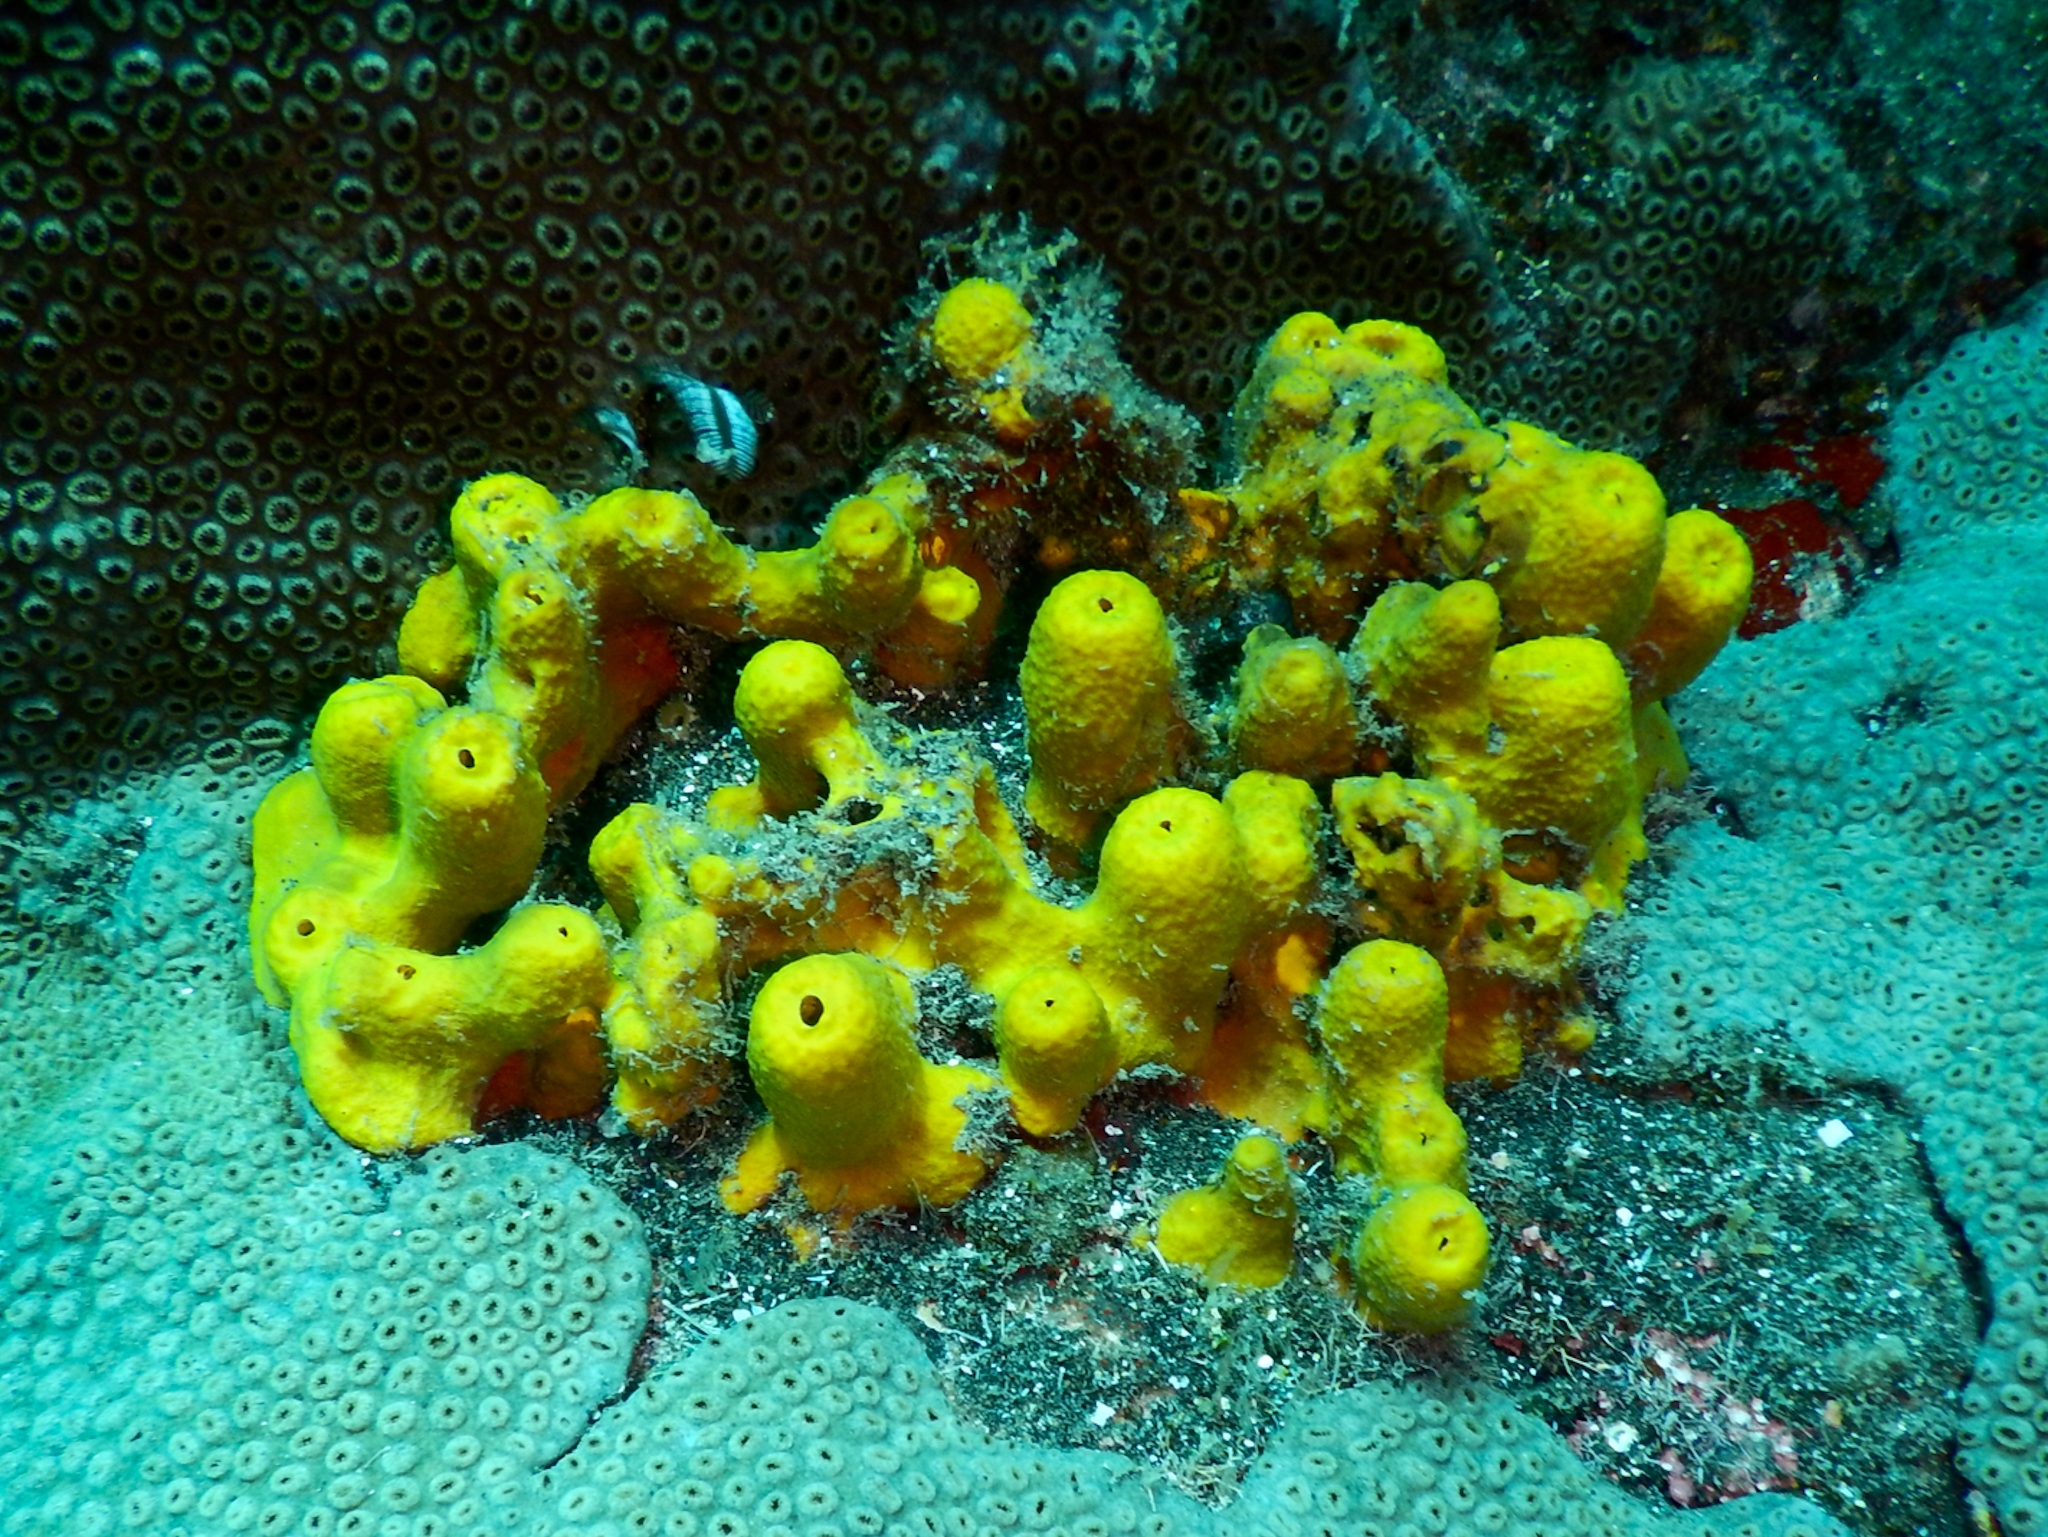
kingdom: Animalia
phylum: Porifera
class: Demospongiae
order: Verongiida
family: Aplysinidae
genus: Aplysina
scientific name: Aplysina aerophoba
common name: Aureate sponge
